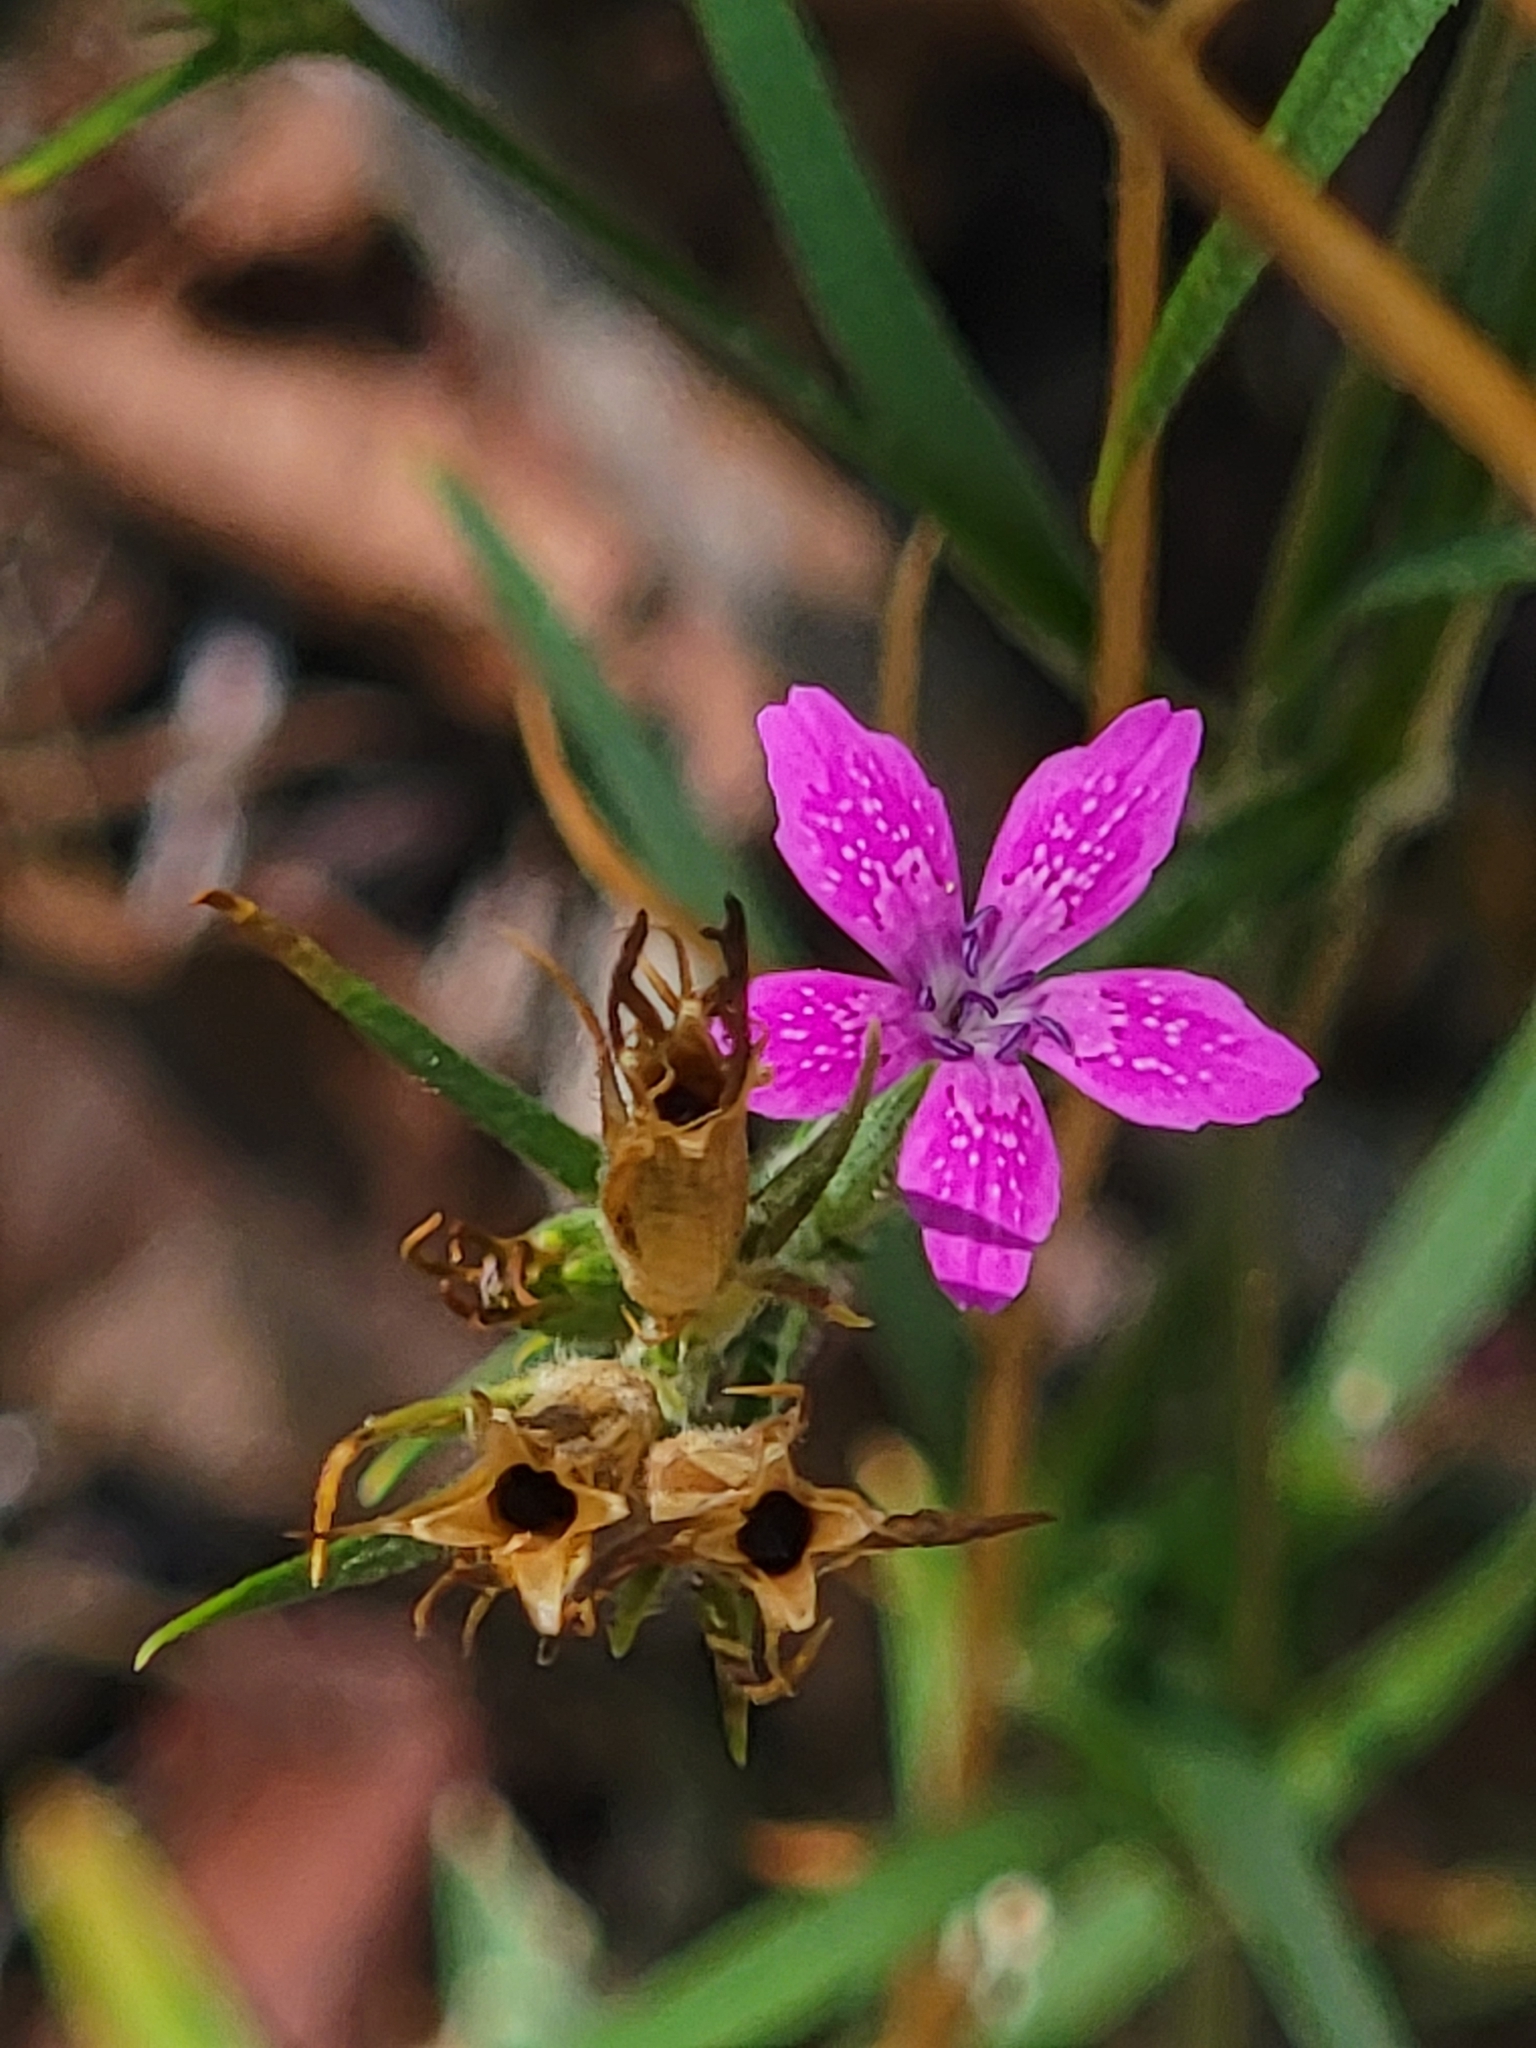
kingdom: Plantae
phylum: Tracheophyta
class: Magnoliopsida
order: Caryophyllales
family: Caryophyllaceae
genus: Dianthus
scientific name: Dianthus armeria
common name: Deptford pink
